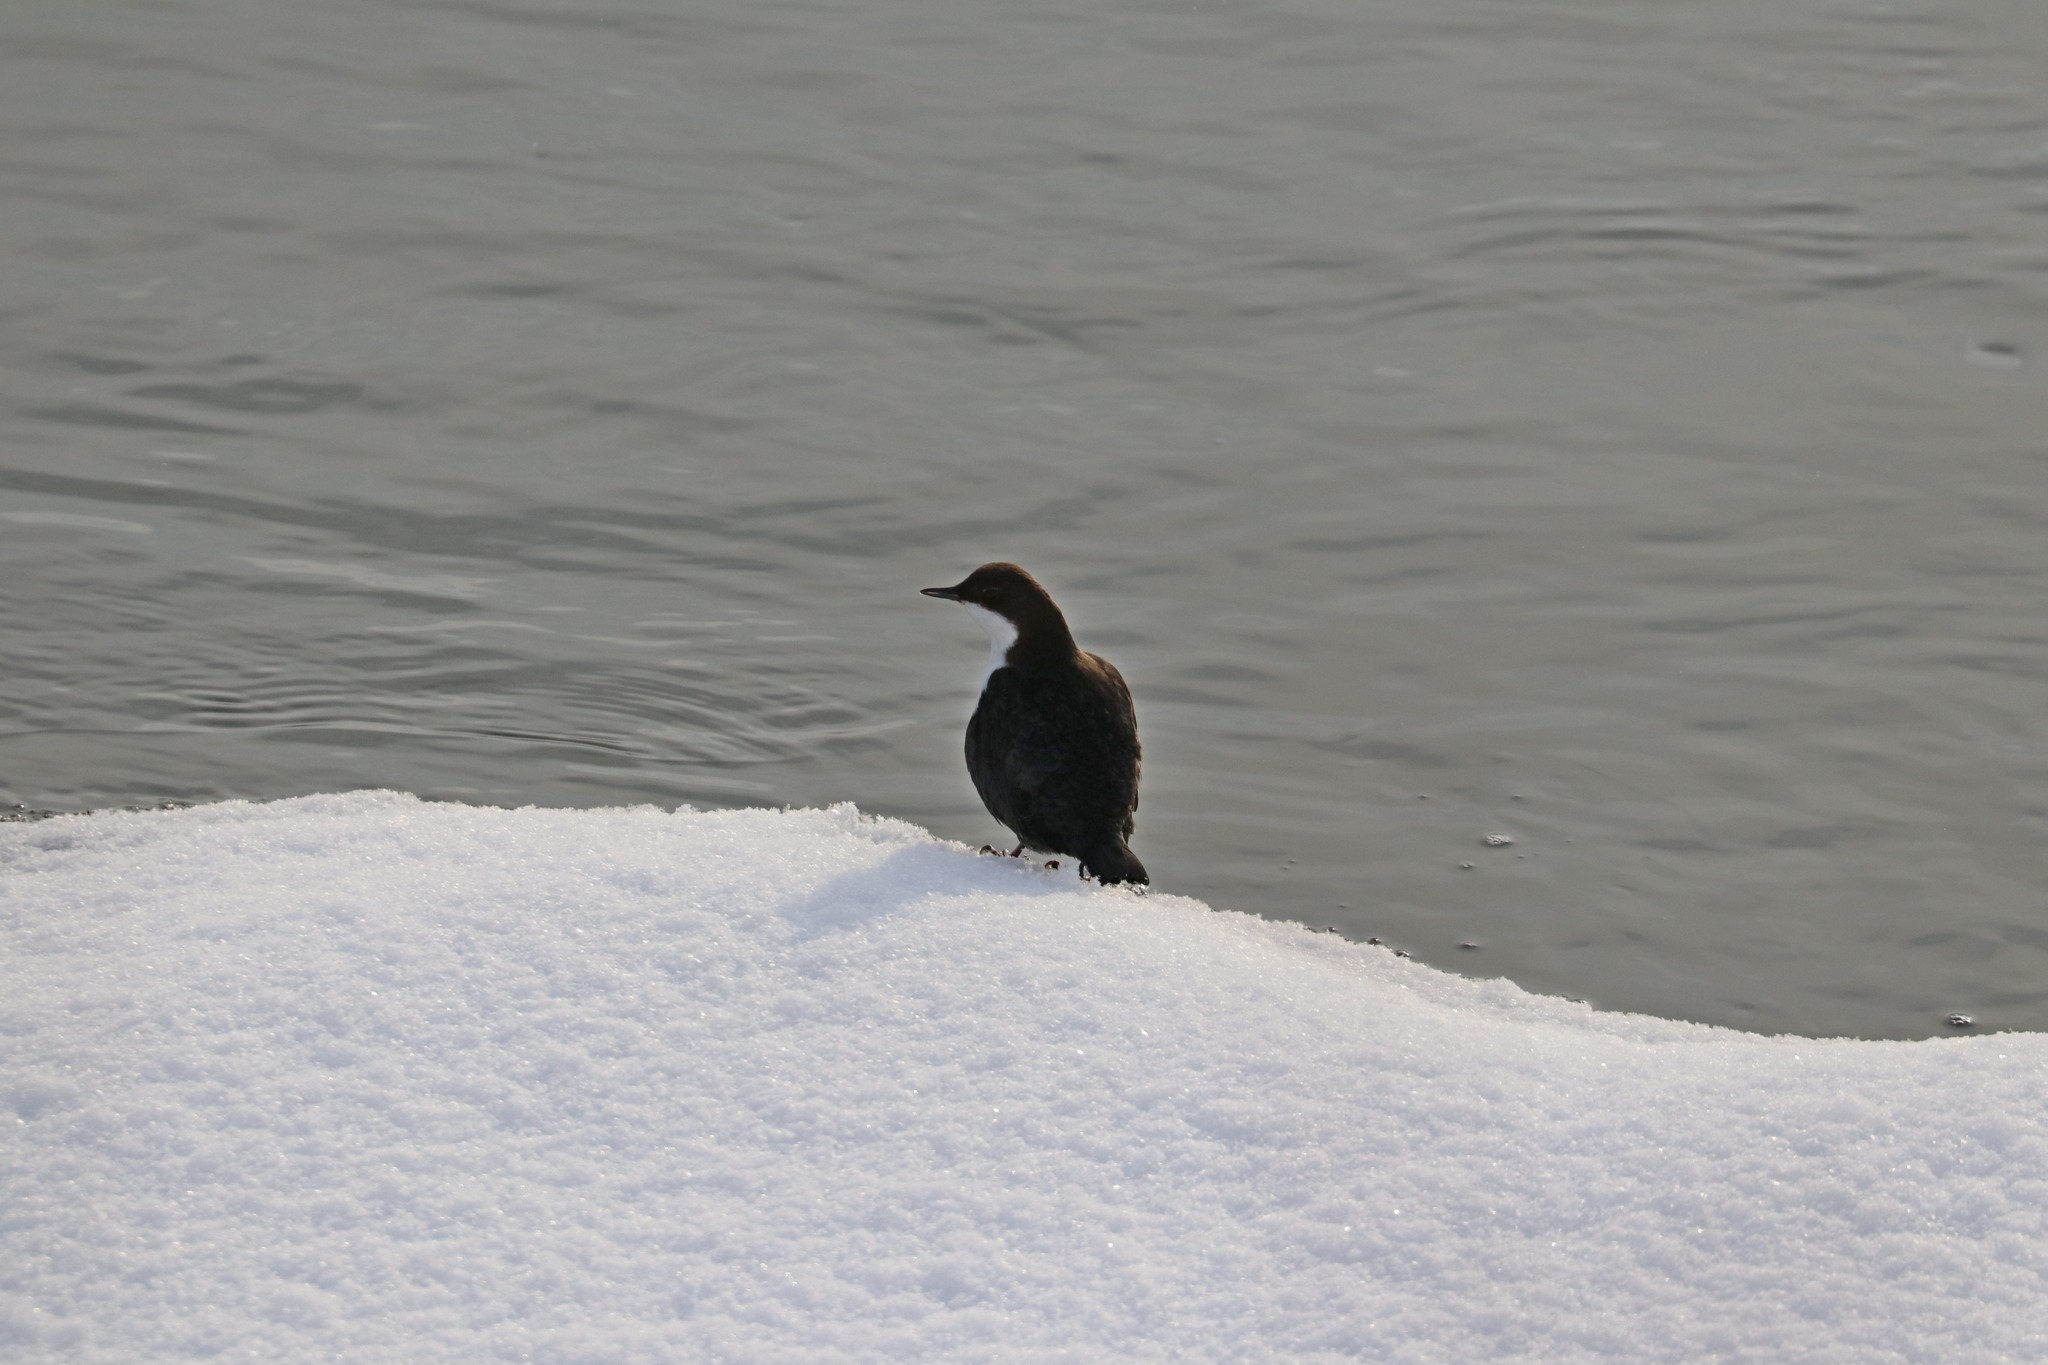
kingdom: Animalia
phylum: Chordata
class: Aves
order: Passeriformes
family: Cinclidae
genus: Cinclus
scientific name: Cinclus cinclus
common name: White-throated dipper
